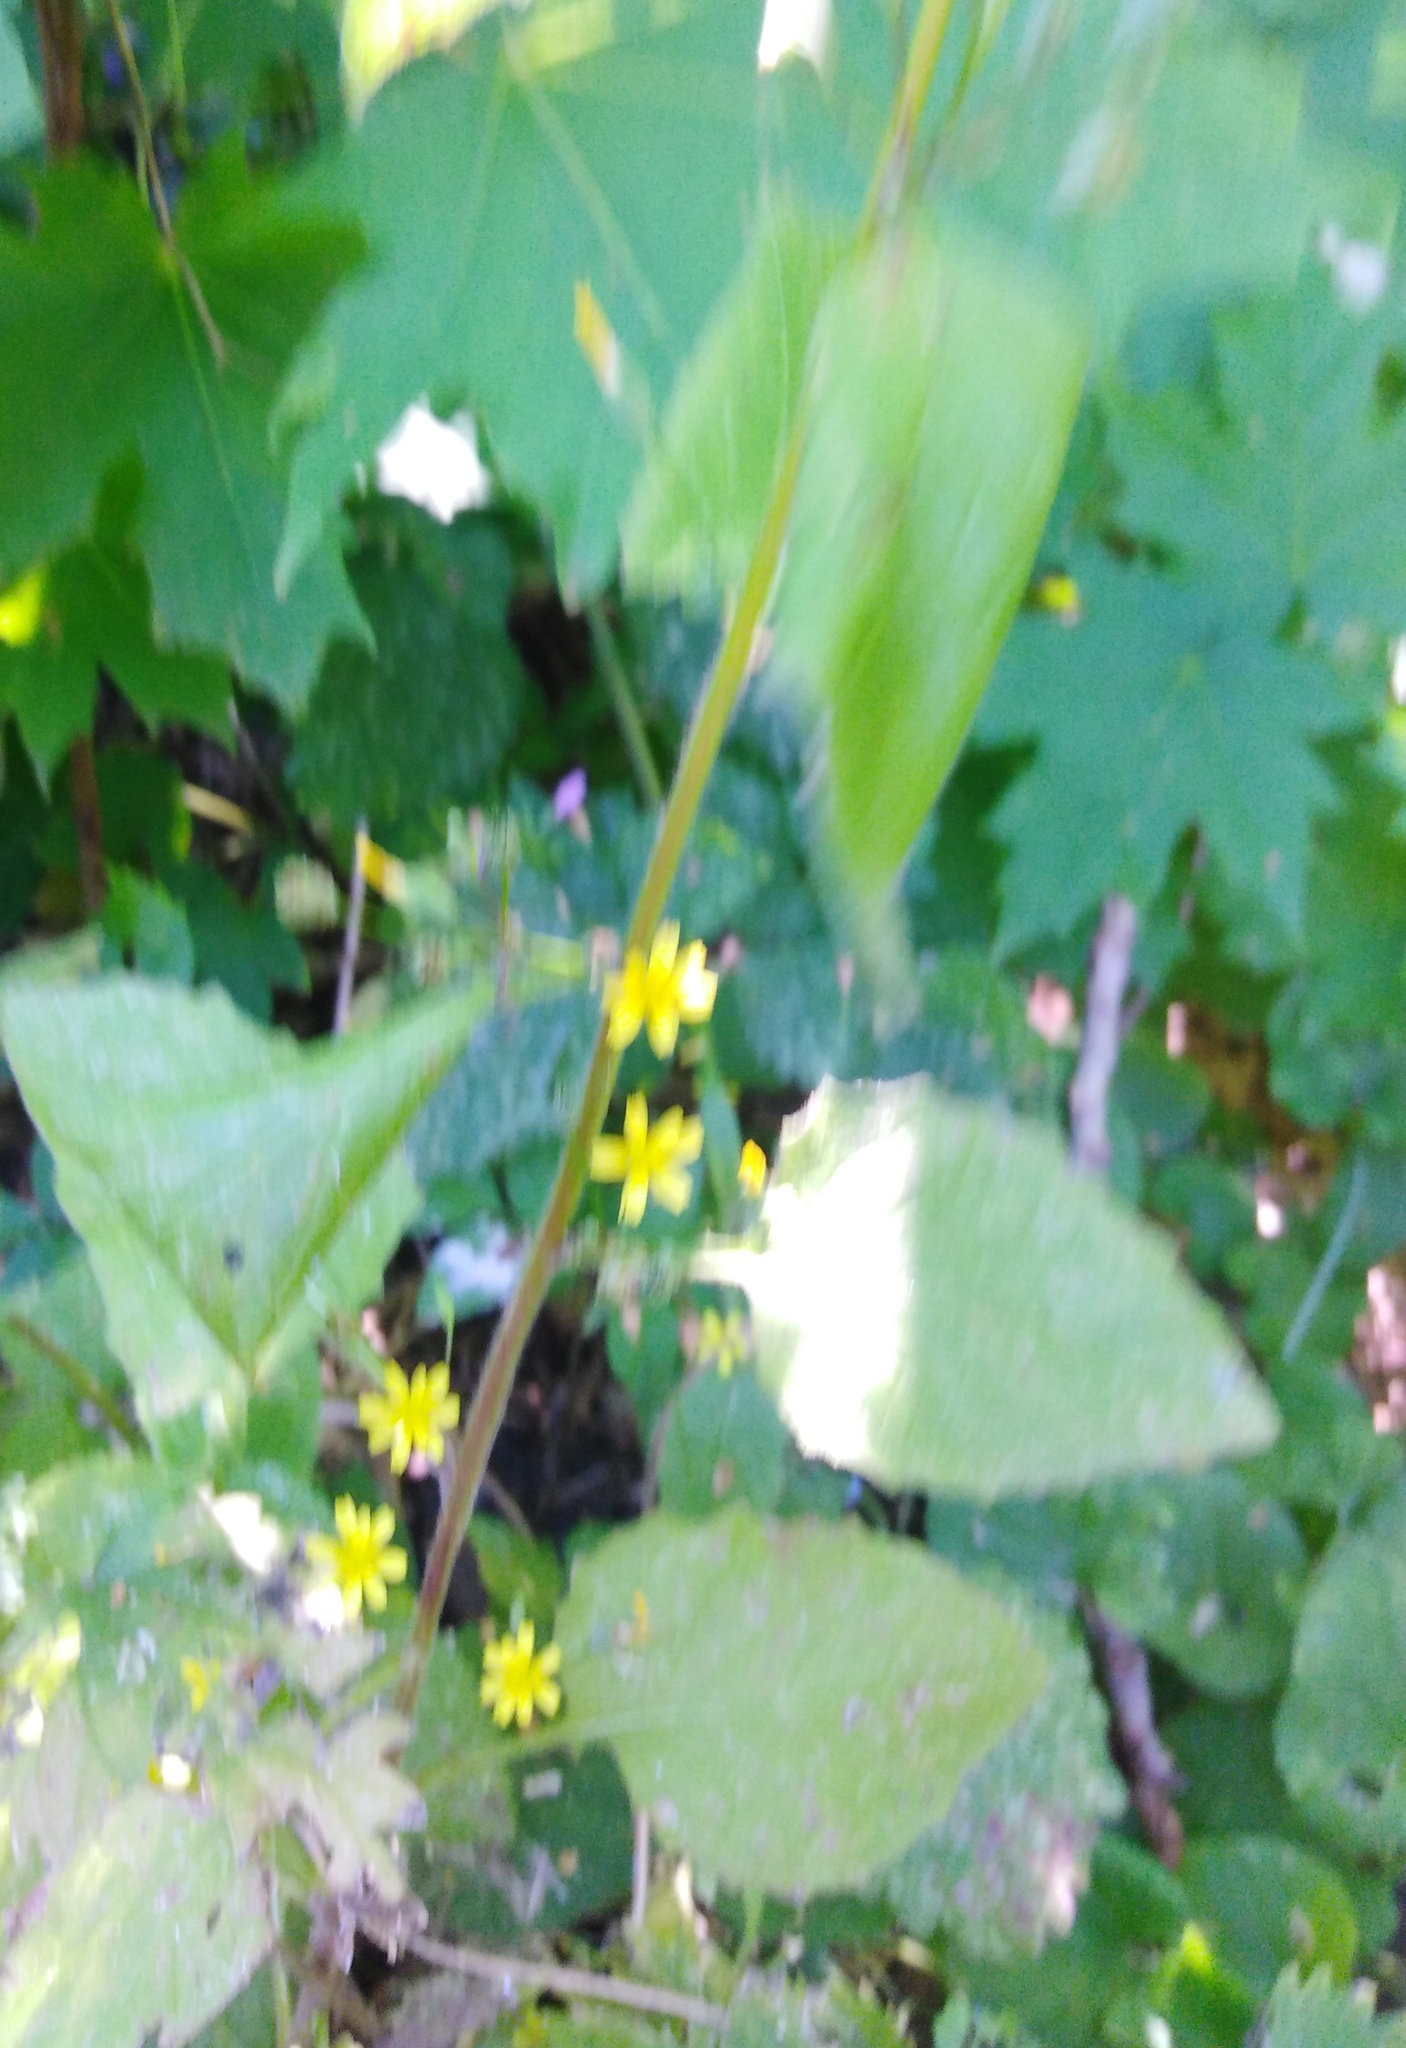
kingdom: Plantae
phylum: Tracheophyta
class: Magnoliopsida
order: Asterales
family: Asteraceae
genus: Lapsana
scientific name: Lapsana communis
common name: Nipplewort
